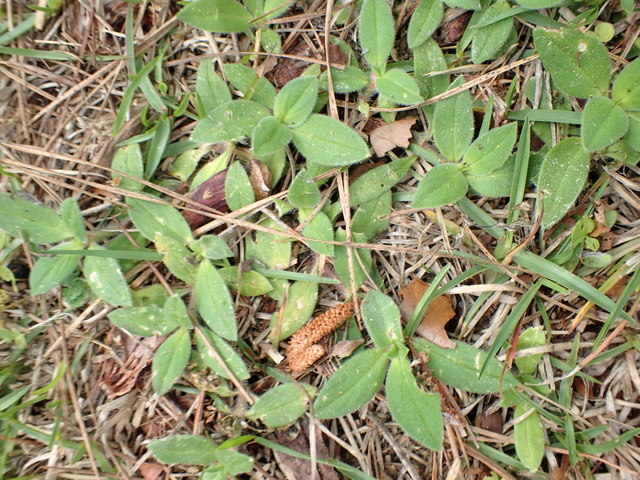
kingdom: Plantae
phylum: Tracheophyta
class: Magnoliopsida
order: Gentianales
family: Rubiaceae
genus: Richardia
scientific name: Richardia scabra
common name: Rough mexican clover
